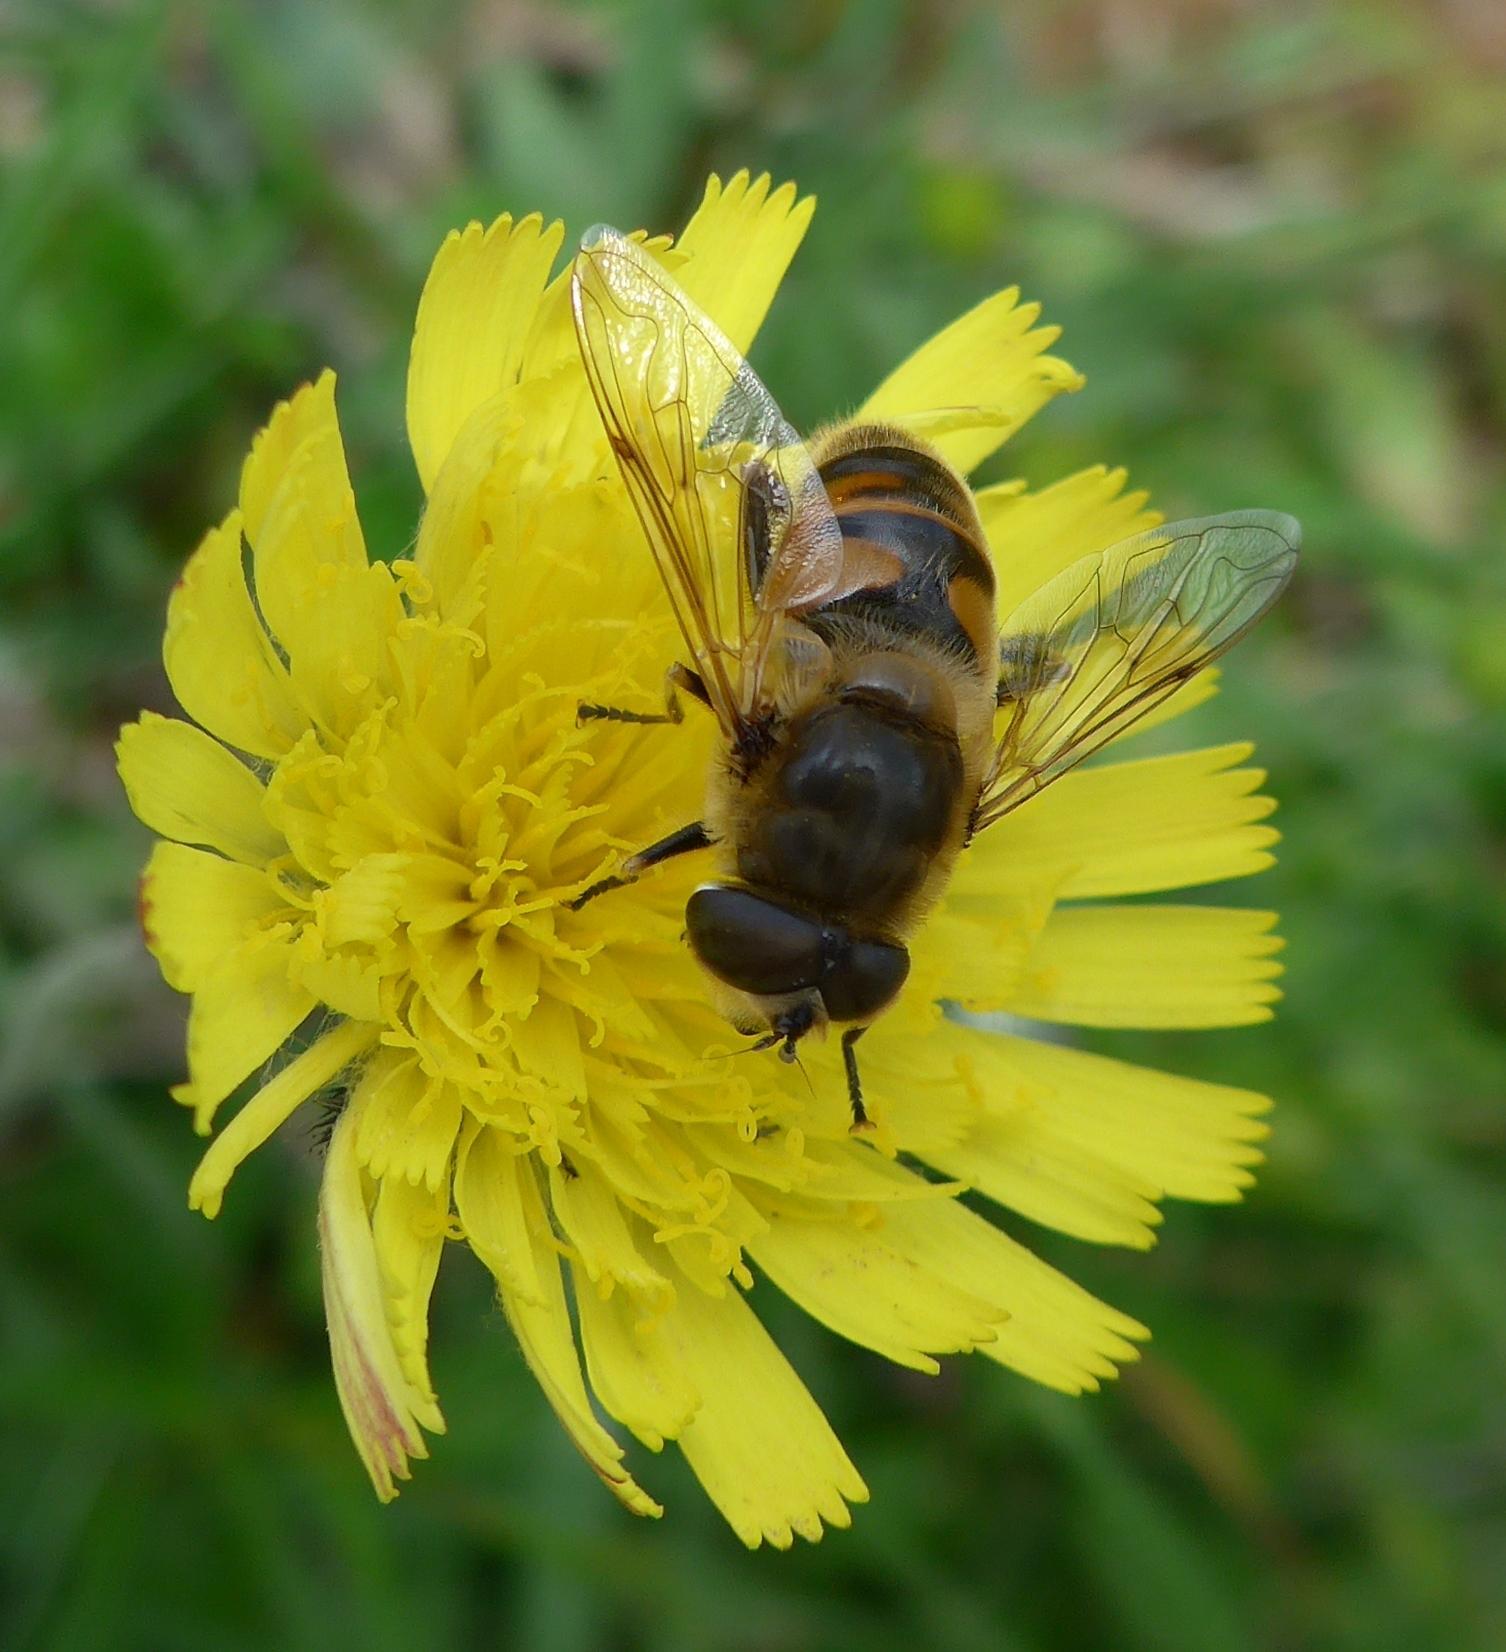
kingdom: Animalia
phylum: Arthropoda
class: Insecta
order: Diptera
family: Syrphidae
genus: Eristalis
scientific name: Eristalis tenax
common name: Drone fly
